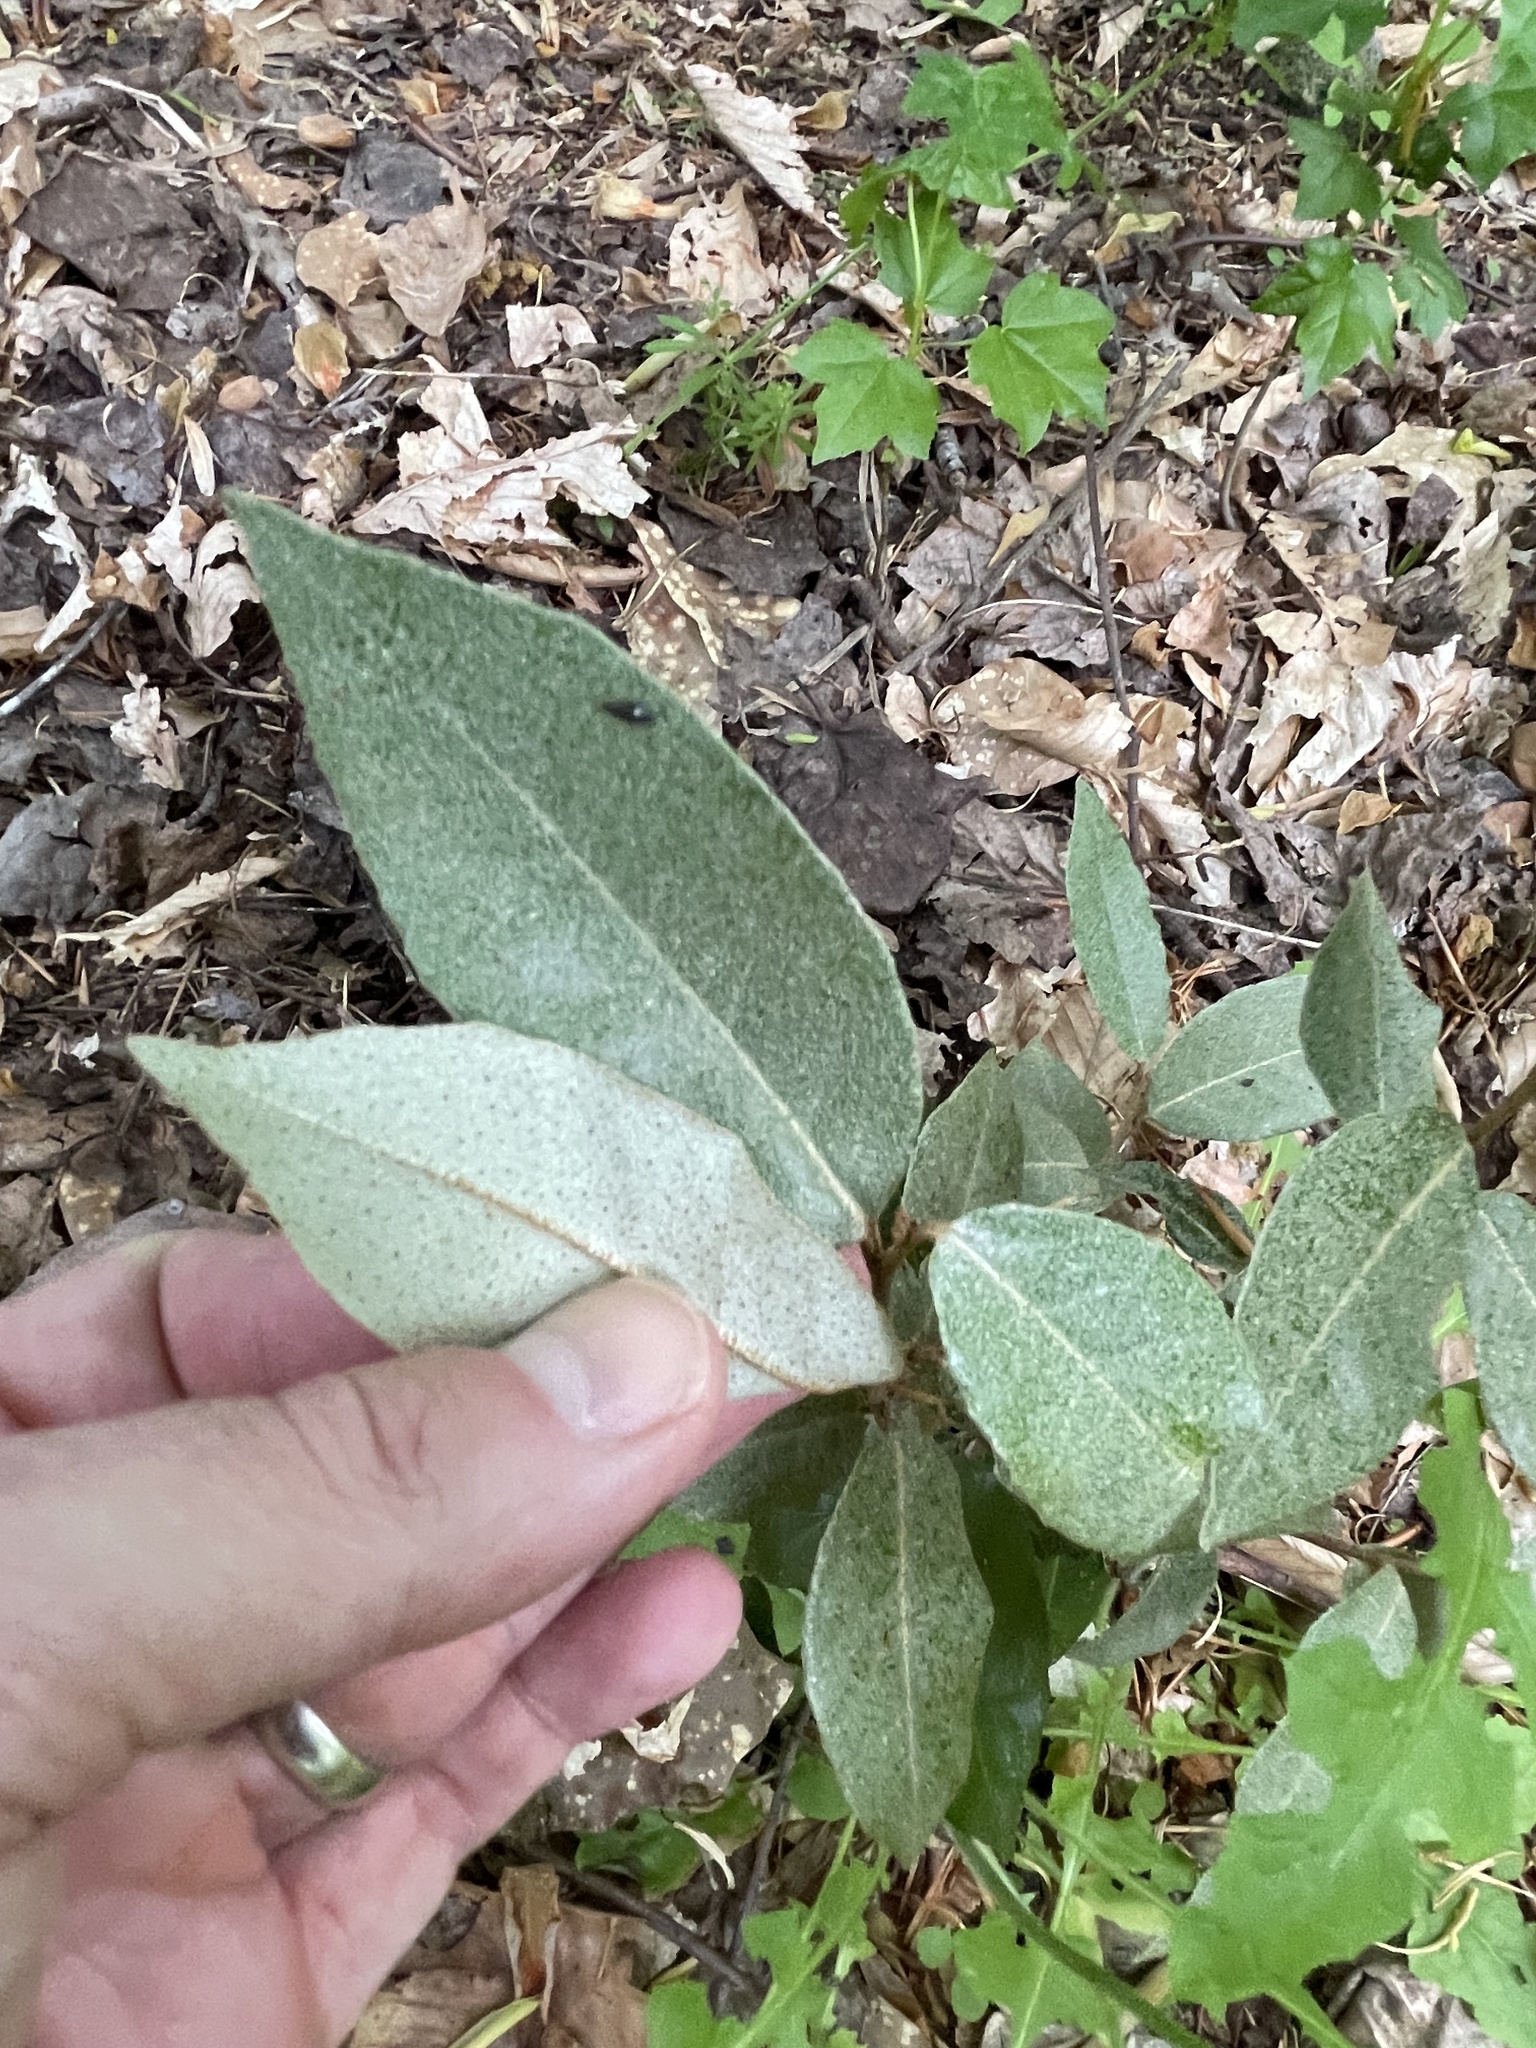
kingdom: Plantae
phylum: Tracheophyta
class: Magnoliopsida
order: Rosales
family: Elaeagnaceae
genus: Elaeagnus
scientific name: Elaeagnus pungens
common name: Spiny oleaster
